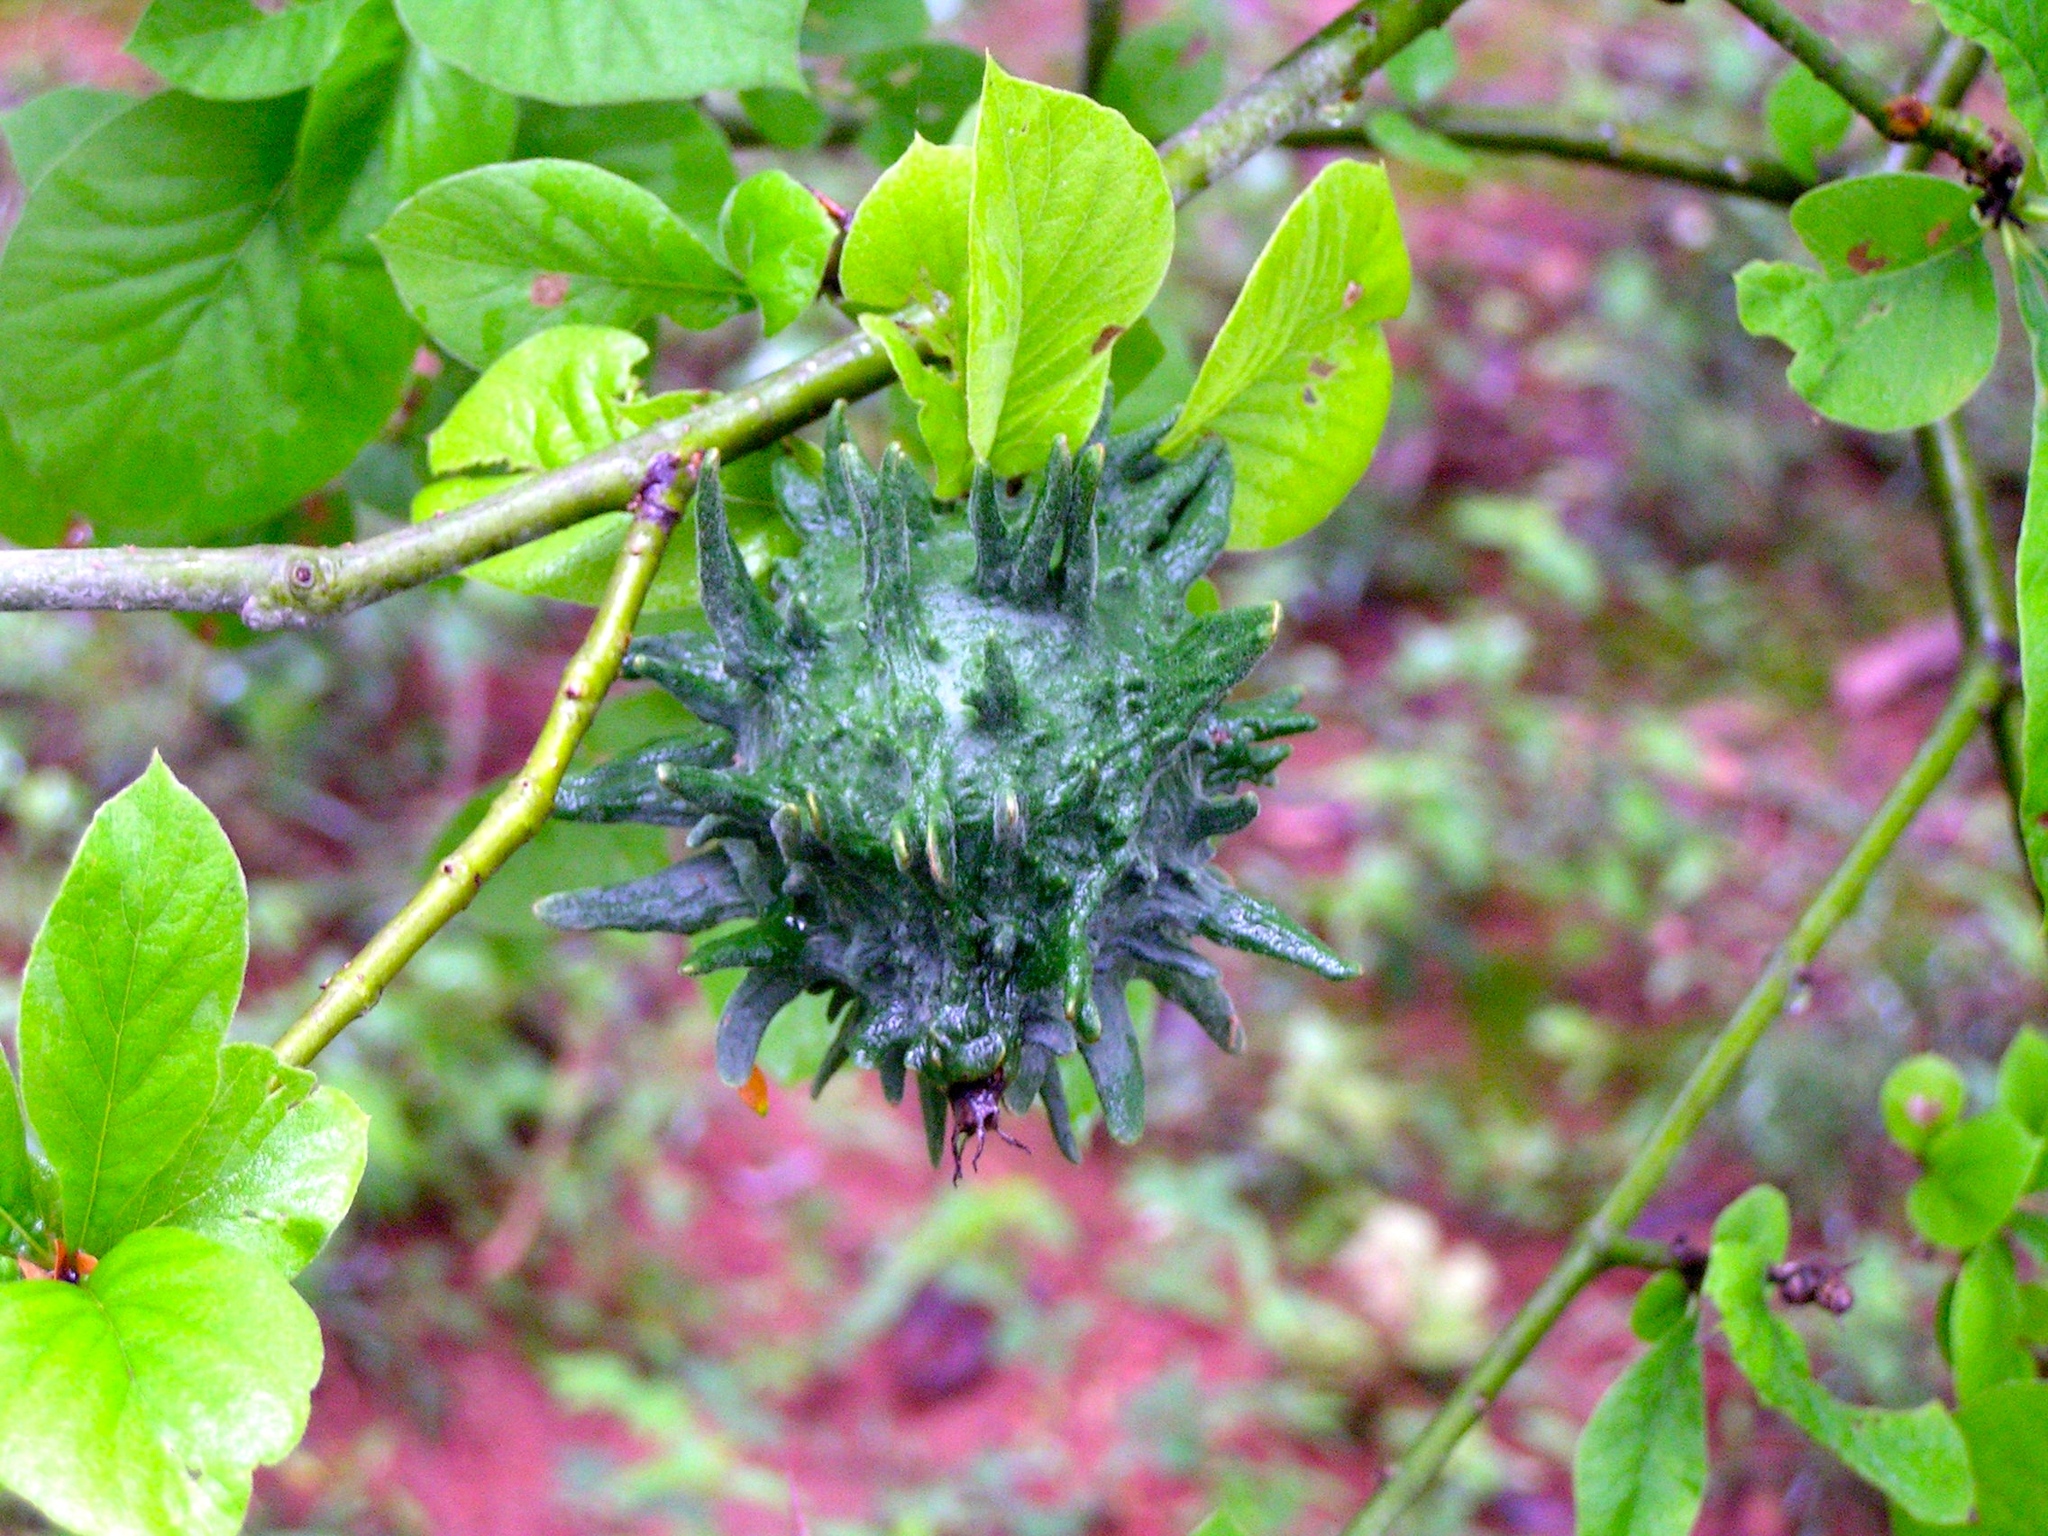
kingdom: Plantae
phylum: Tracheophyta
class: Magnoliopsida
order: Gentianales
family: Rubiaceae
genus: Randia
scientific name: Randia echinocarpa
